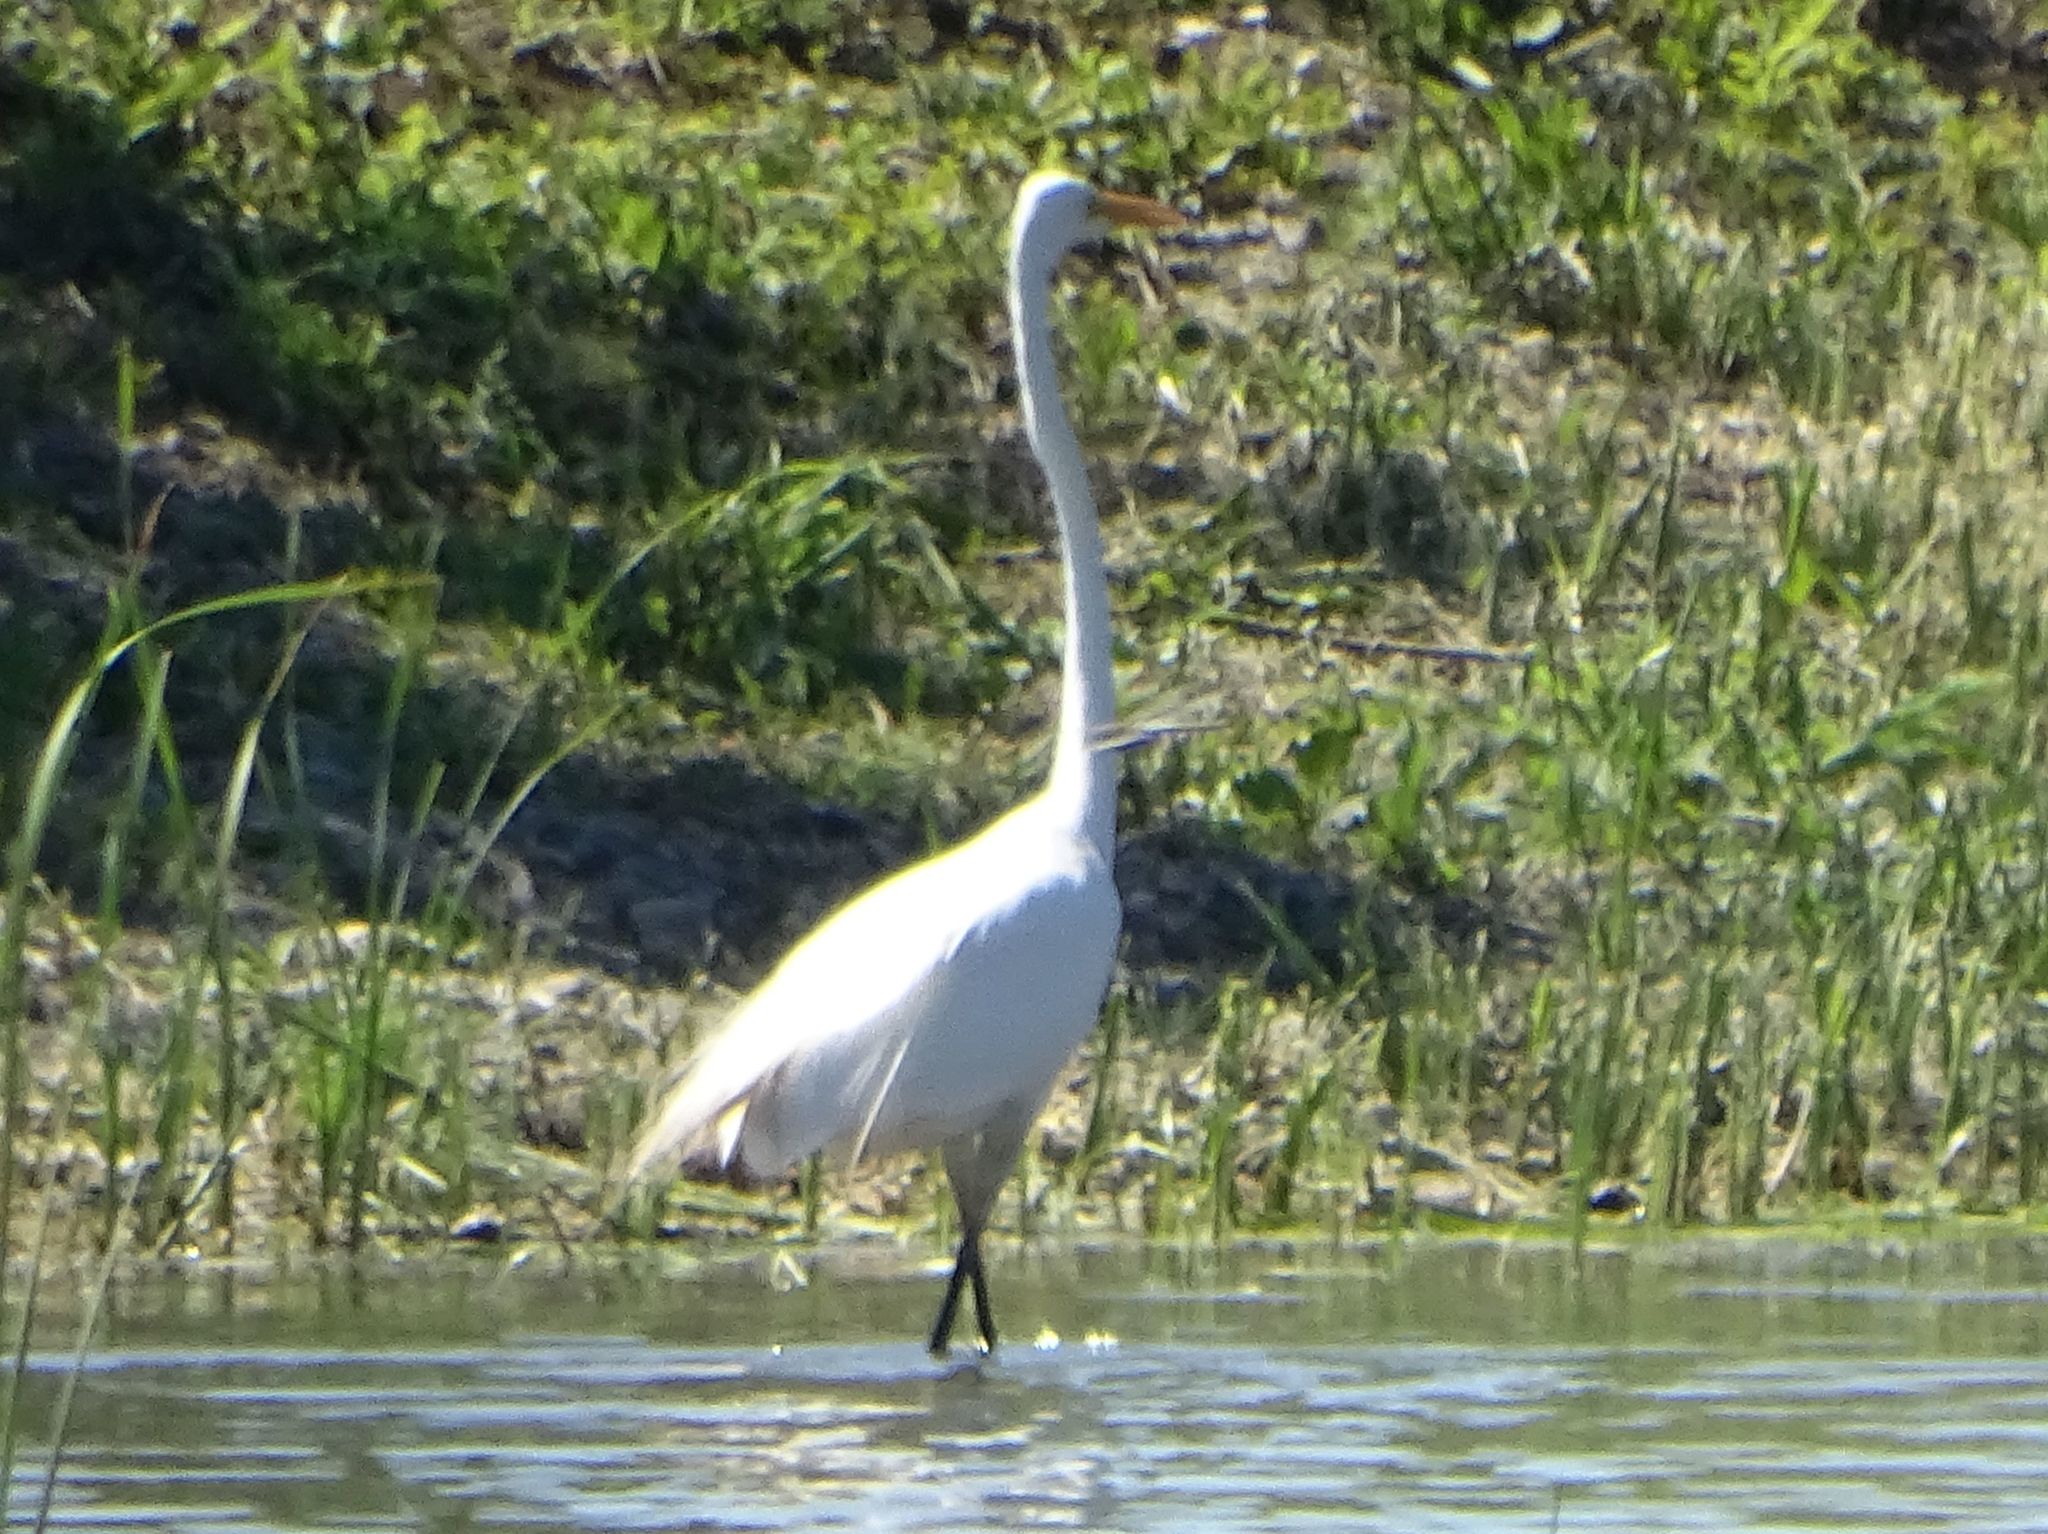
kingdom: Animalia
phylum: Chordata
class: Aves
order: Pelecaniformes
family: Ardeidae
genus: Ardea
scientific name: Ardea alba
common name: Great egret
